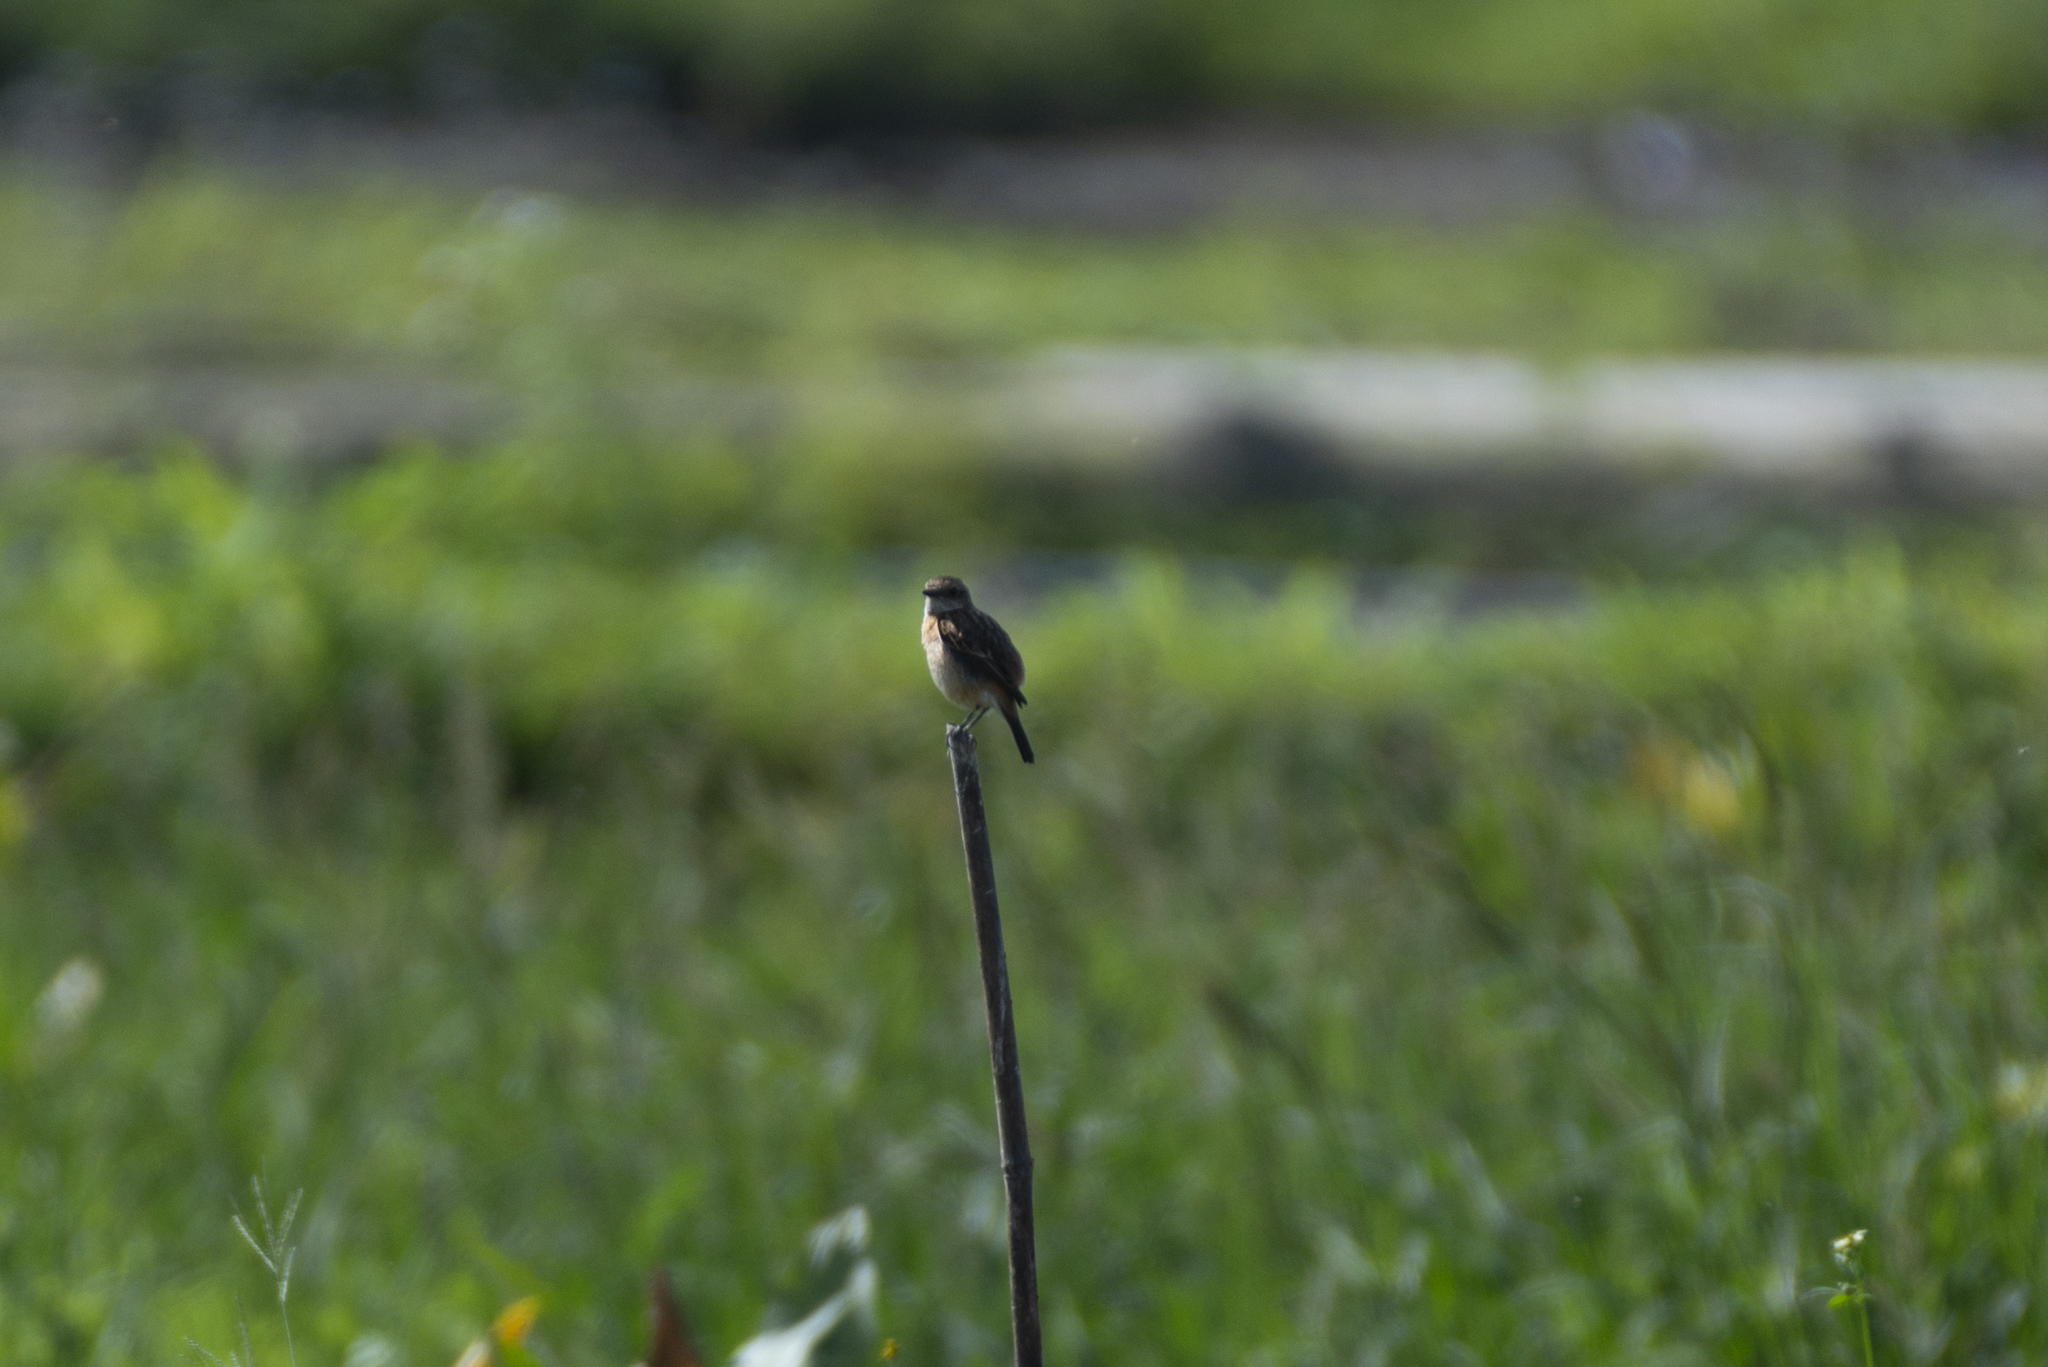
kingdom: Animalia
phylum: Chordata
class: Aves
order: Passeriformes
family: Muscicapidae
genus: Saxicola
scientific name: Saxicola maurus
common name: Siberian stonechat
